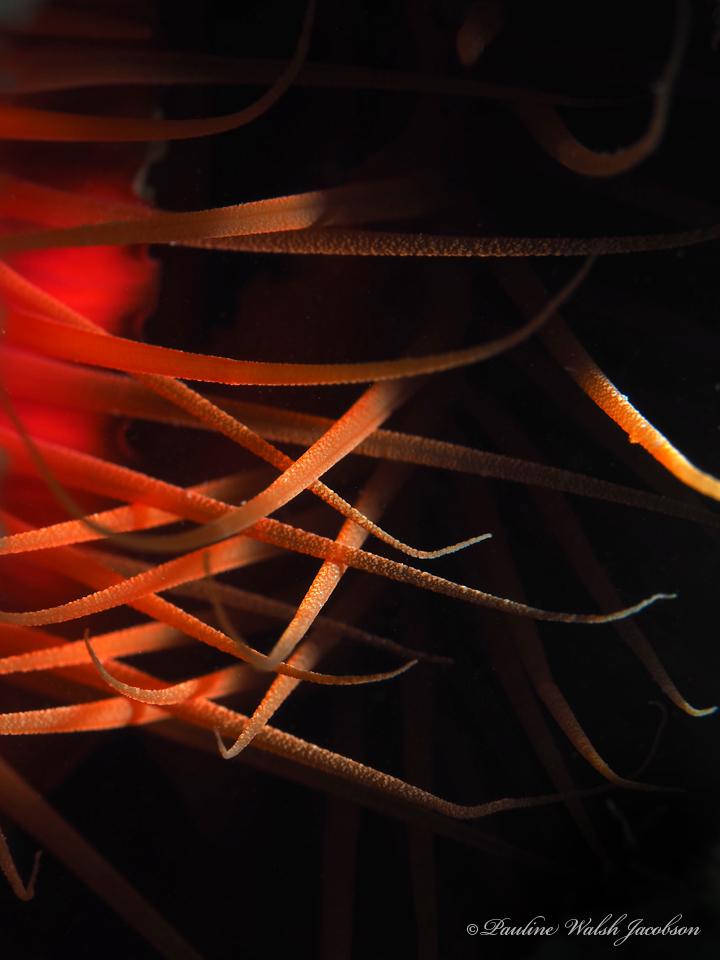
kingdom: Animalia
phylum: Mollusca
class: Bivalvia
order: Limida
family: Limidae
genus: Ctenoides
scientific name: Ctenoides scaber
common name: Rough fileclam
